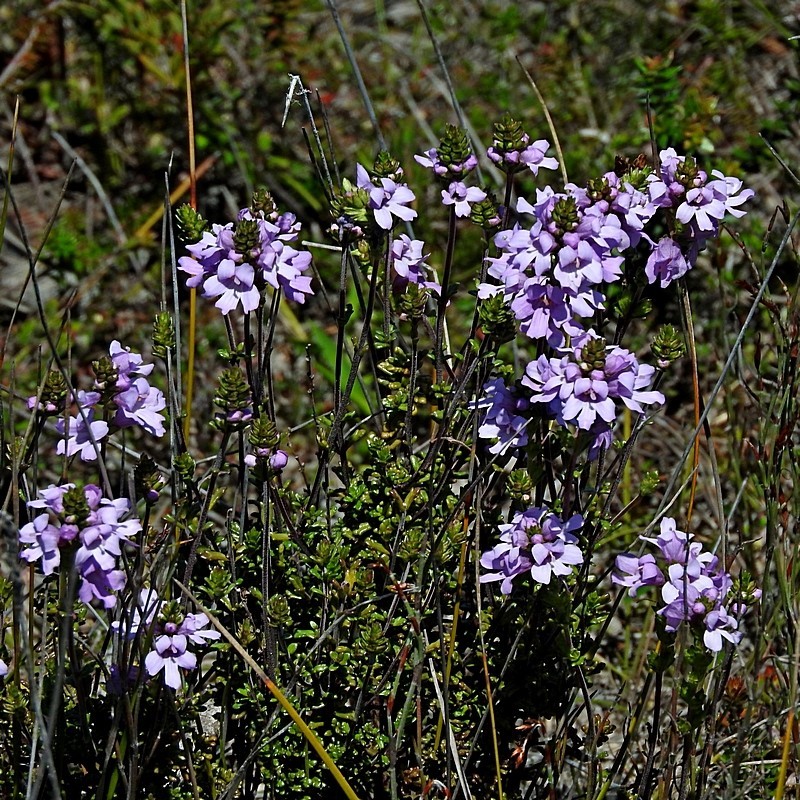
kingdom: Plantae
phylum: Tracheophyta
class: Magnoliopsida
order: Lamiales
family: Orobanchaceae
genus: Euphrasia
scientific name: Euphrasia collina
